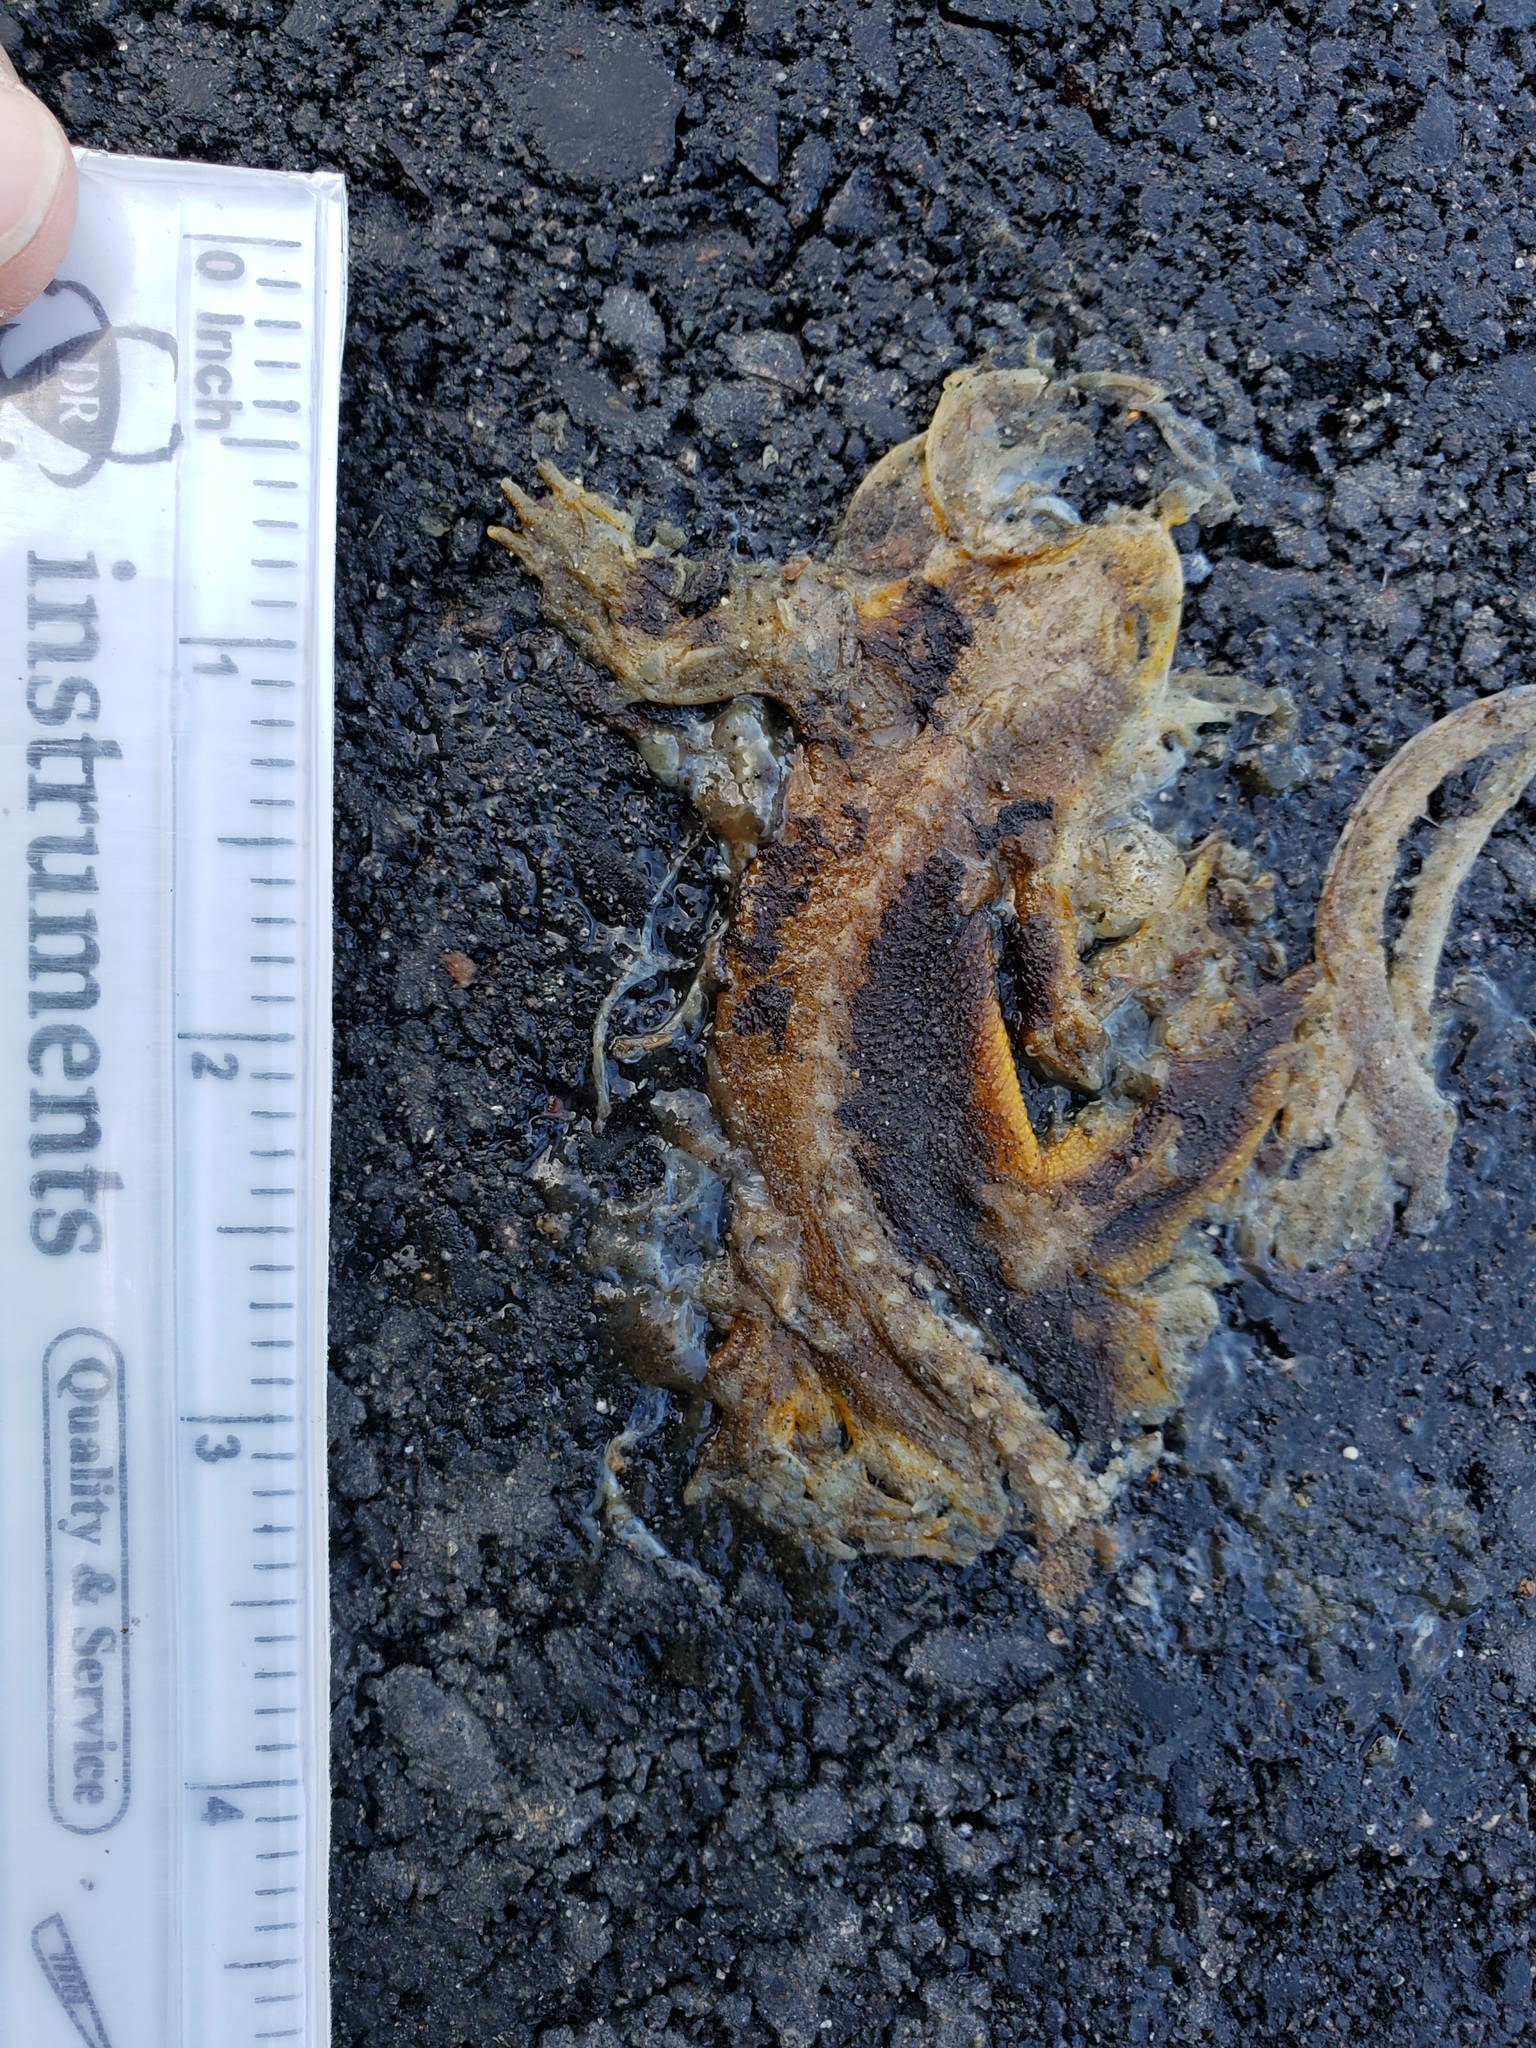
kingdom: Animalia
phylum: Chordata
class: Amphibia
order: Caudata
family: Salamandridae
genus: Taricha
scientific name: Taricha
